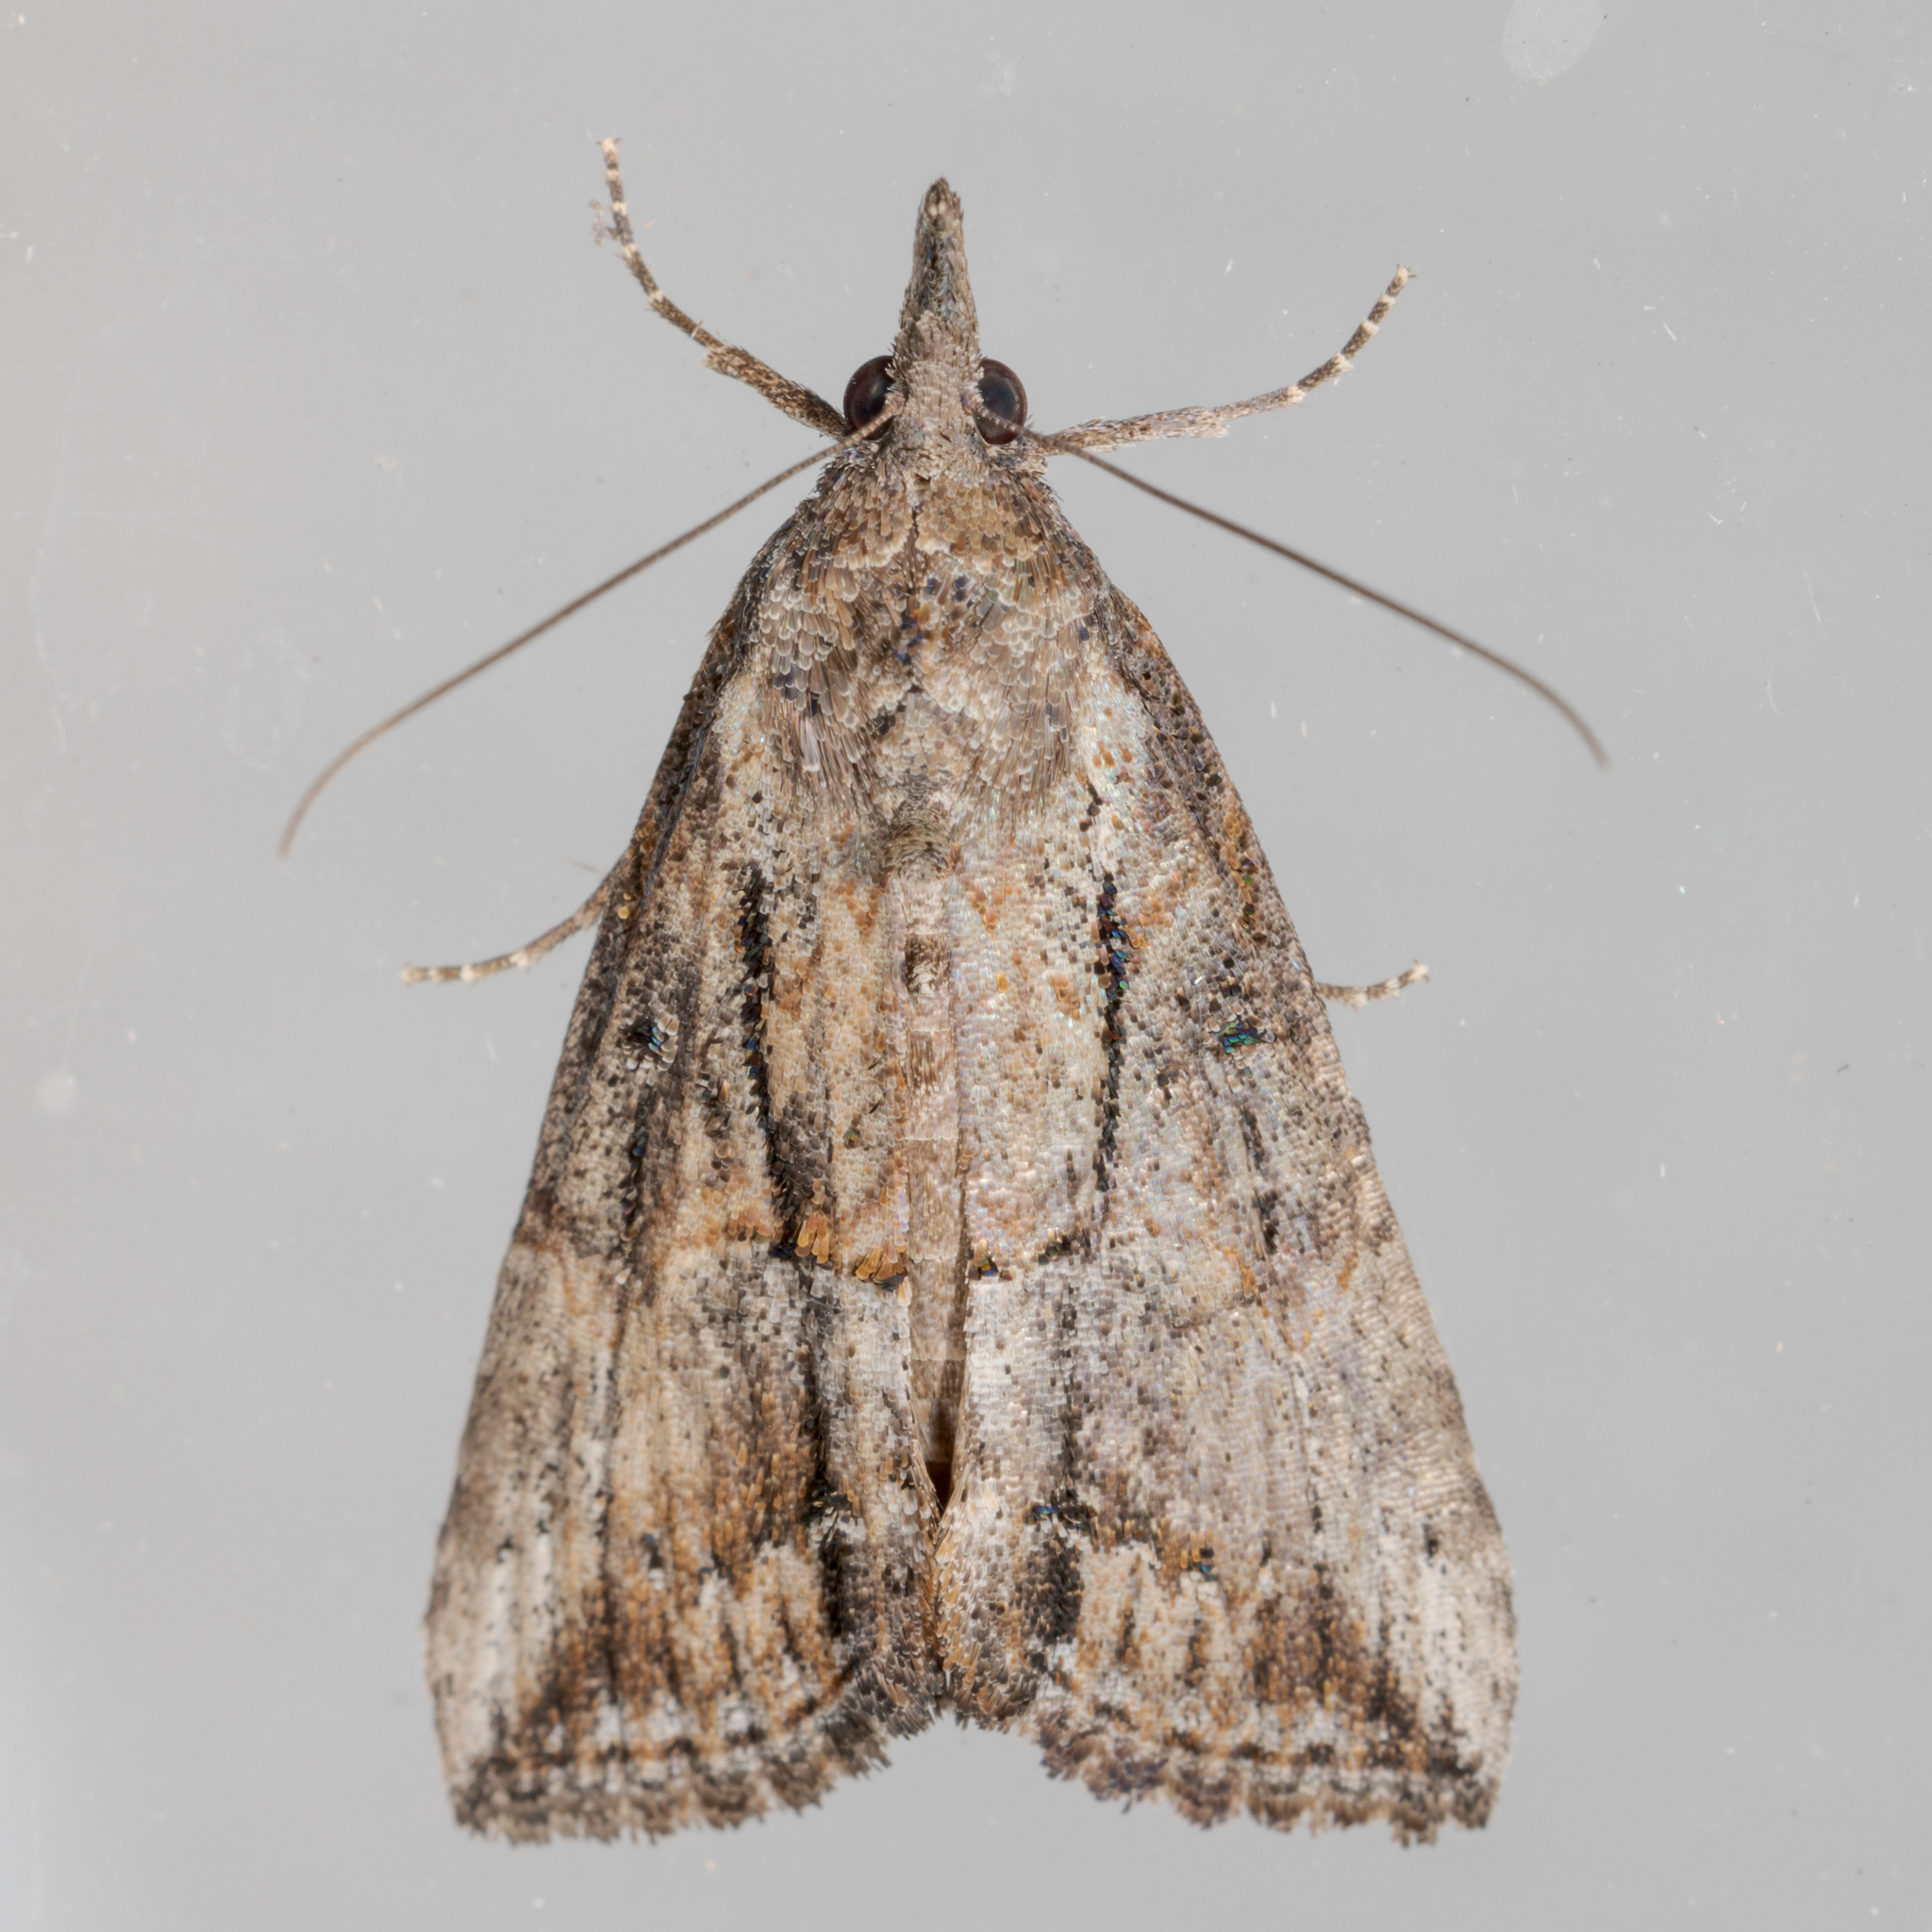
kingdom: Animalia
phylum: Arthropoda
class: Insecta
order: Lepidoptera
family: Erebidae
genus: Hypena
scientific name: Hypena scabra
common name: Green cloverworm
